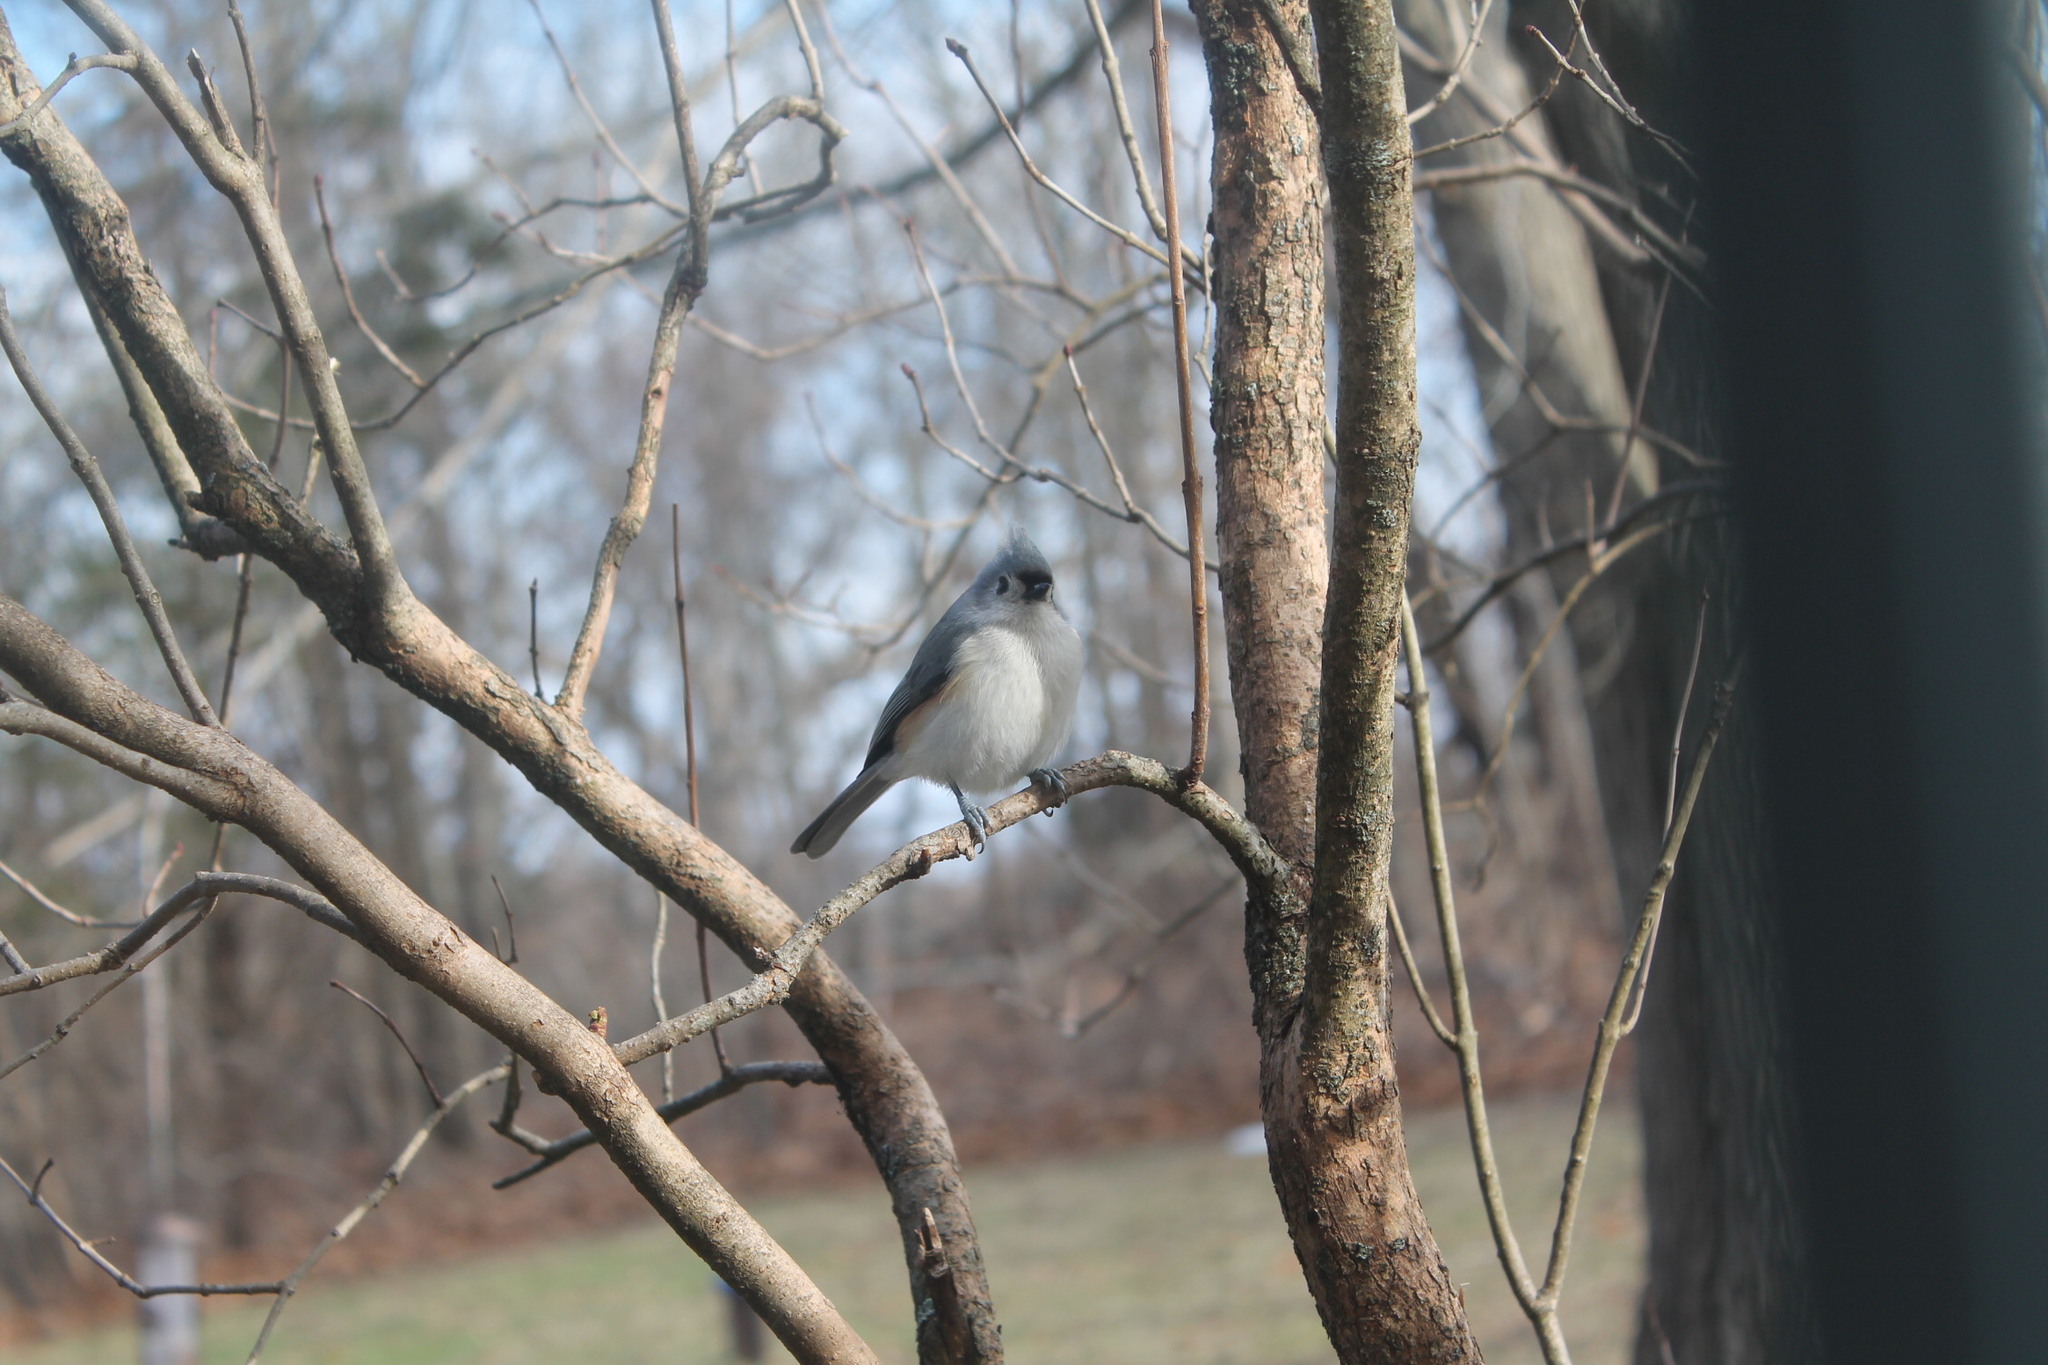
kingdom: Animalia
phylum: Chordata
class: Aves
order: Passeriformes
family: Paridae
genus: Baeolophus
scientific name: Baeolophus bicolor
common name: Tufted titmouse
